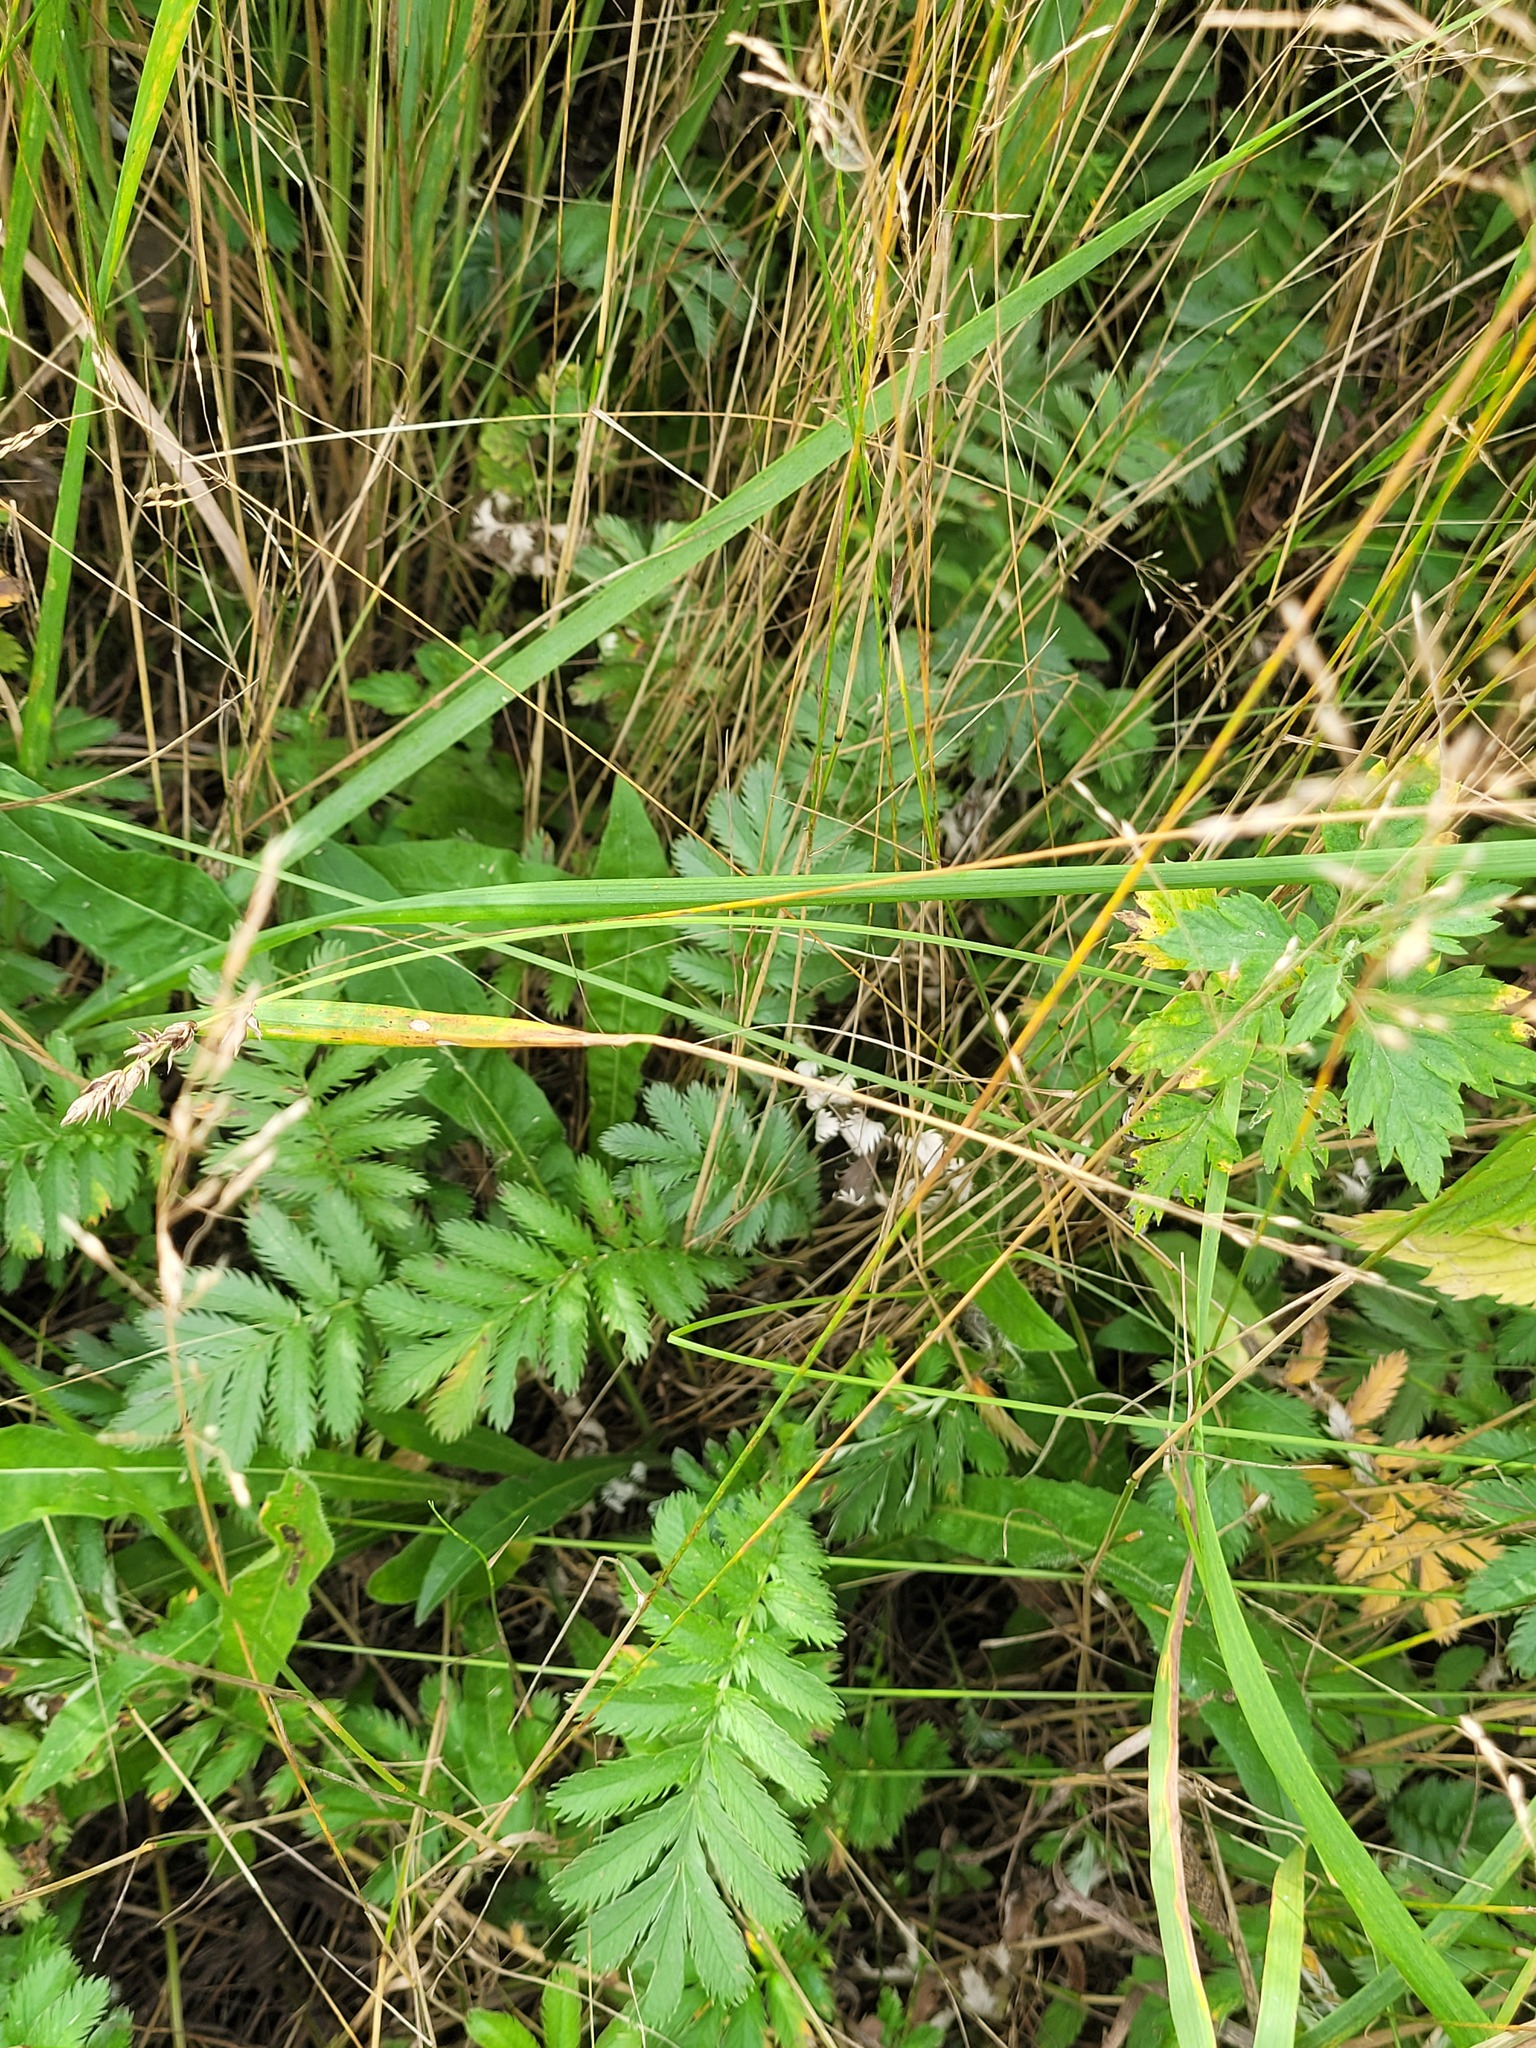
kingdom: Plantae
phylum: Tracheophyta
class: Magnoliopsida
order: Rosales
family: Rosaceae
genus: Argentina
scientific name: Argentina anserina
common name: Common silverweed
